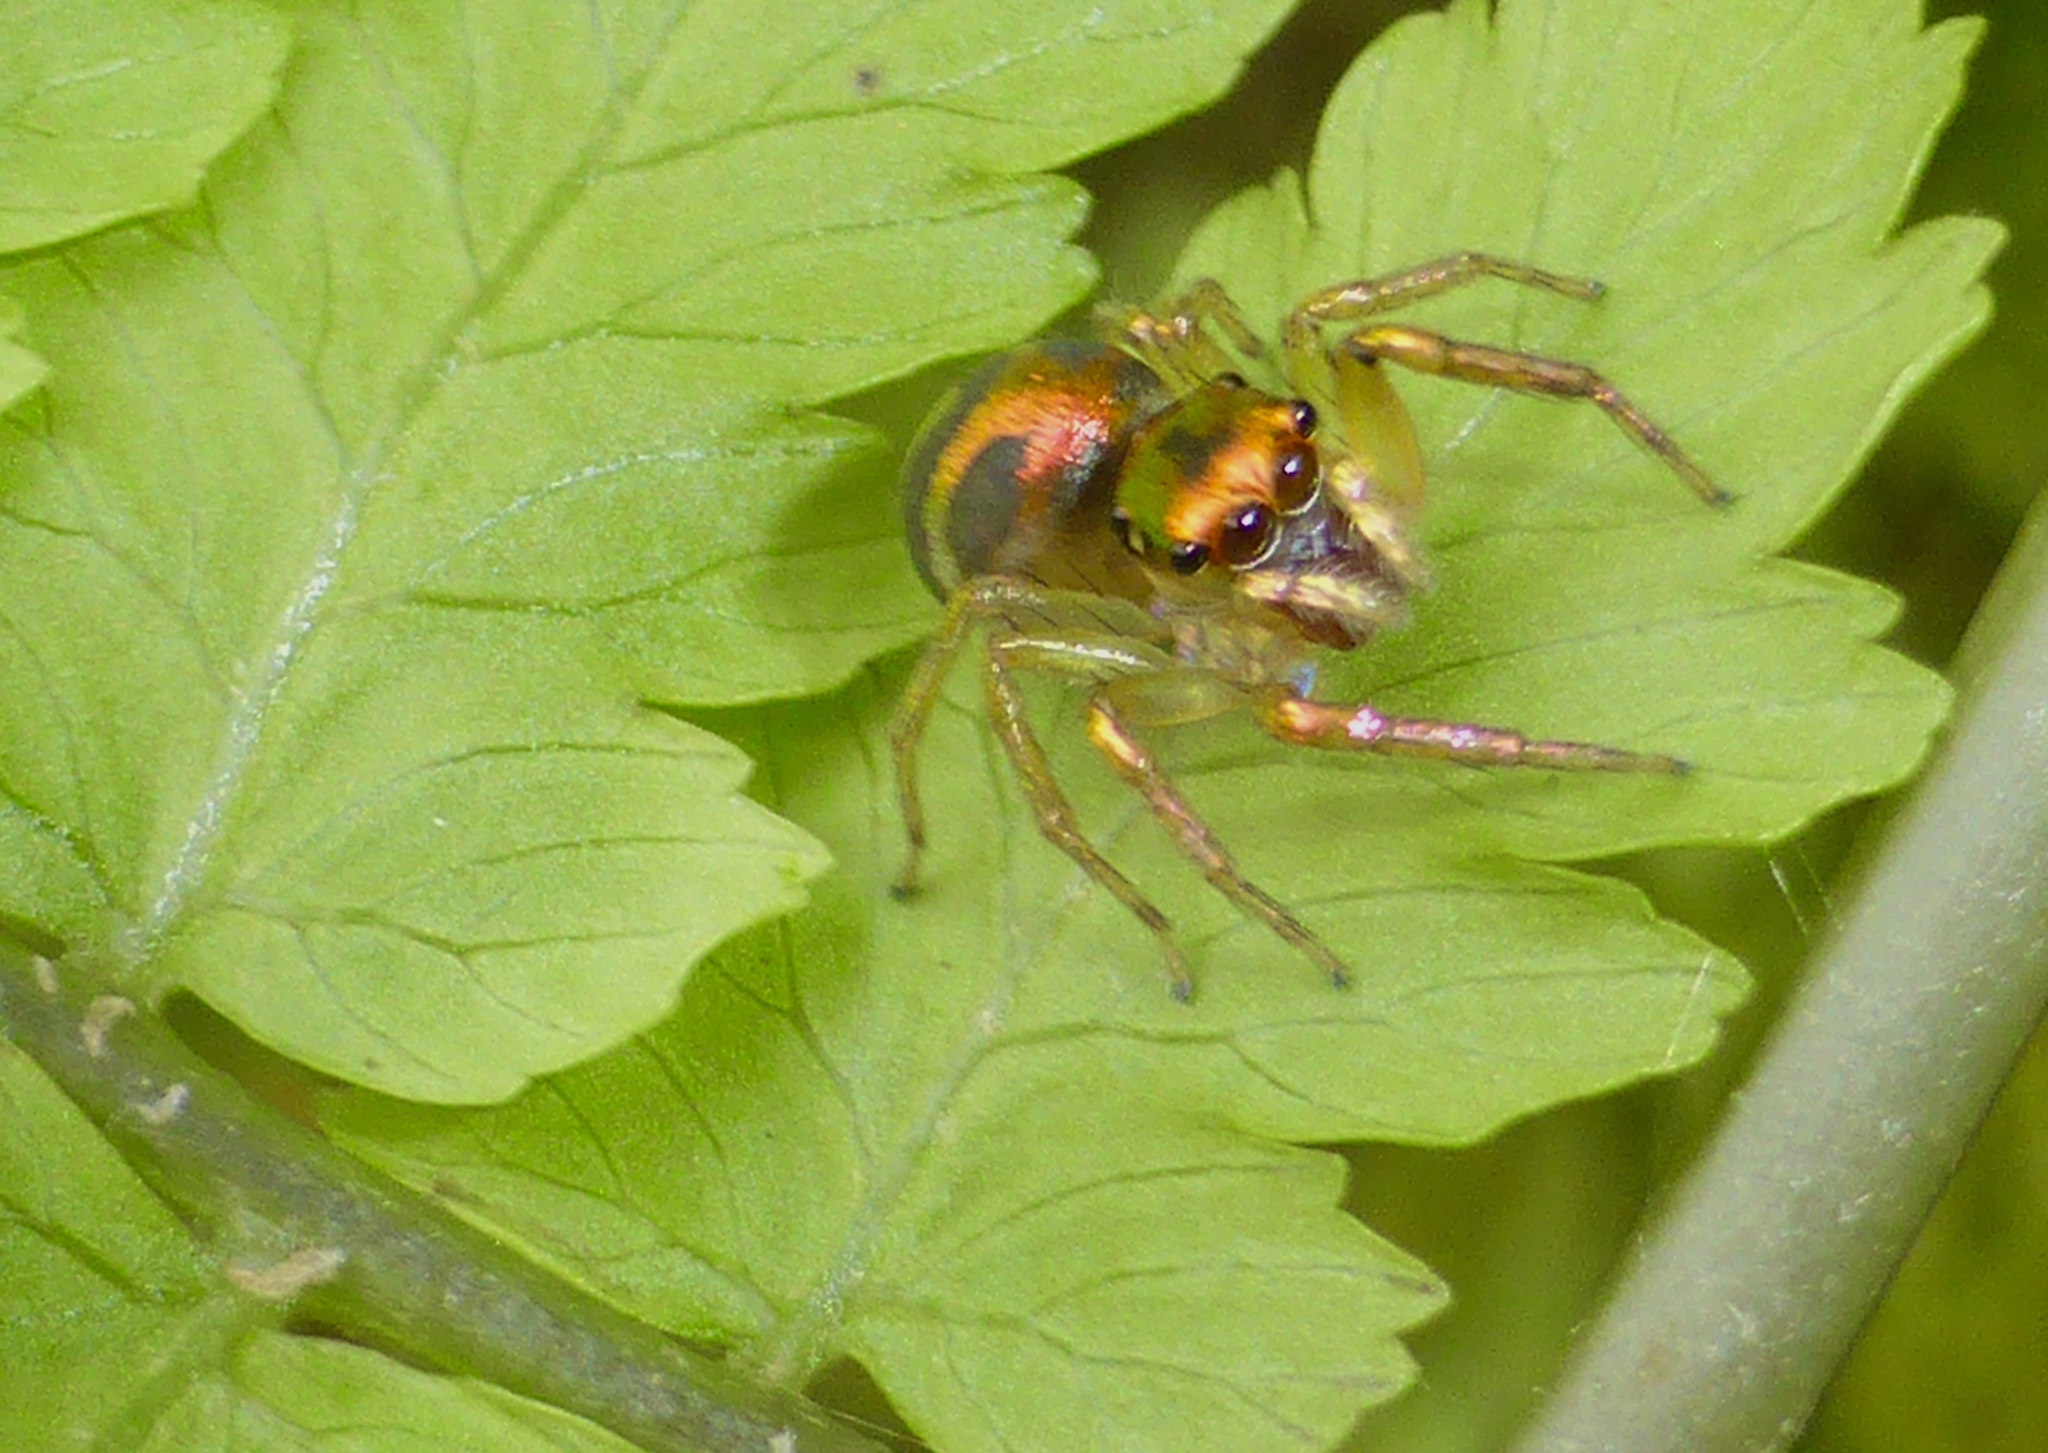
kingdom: Animalia
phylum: Arthropoda
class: Arachnida
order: Araneae
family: Salticidae
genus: Cytaea
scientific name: Cytaea haematica
